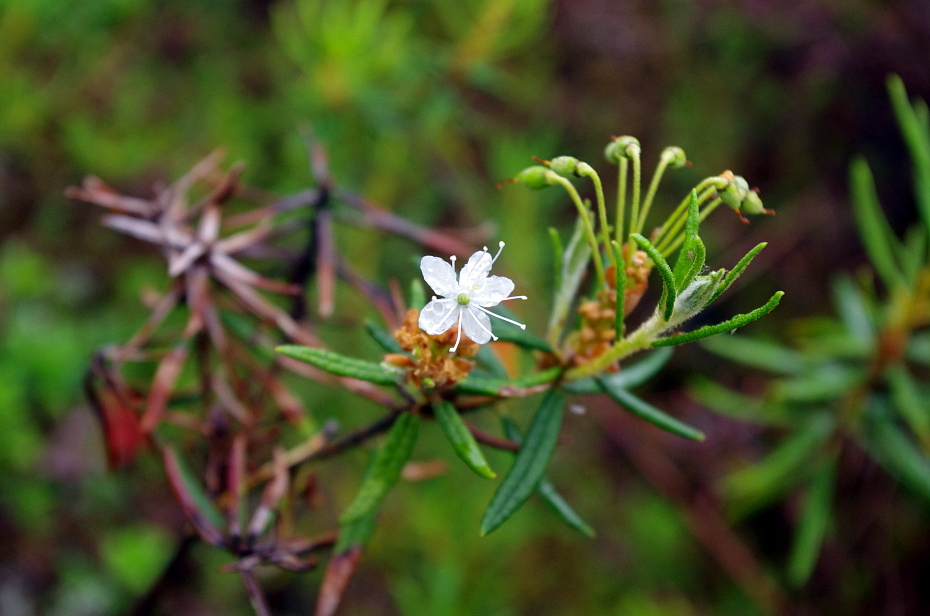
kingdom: Plantae
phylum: Tracheophyta
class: Magnoliopsida
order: Ericales
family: Ericaceae
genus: Rhododendron
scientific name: Rhododendron tomentosum
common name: Marsh labrador tea
